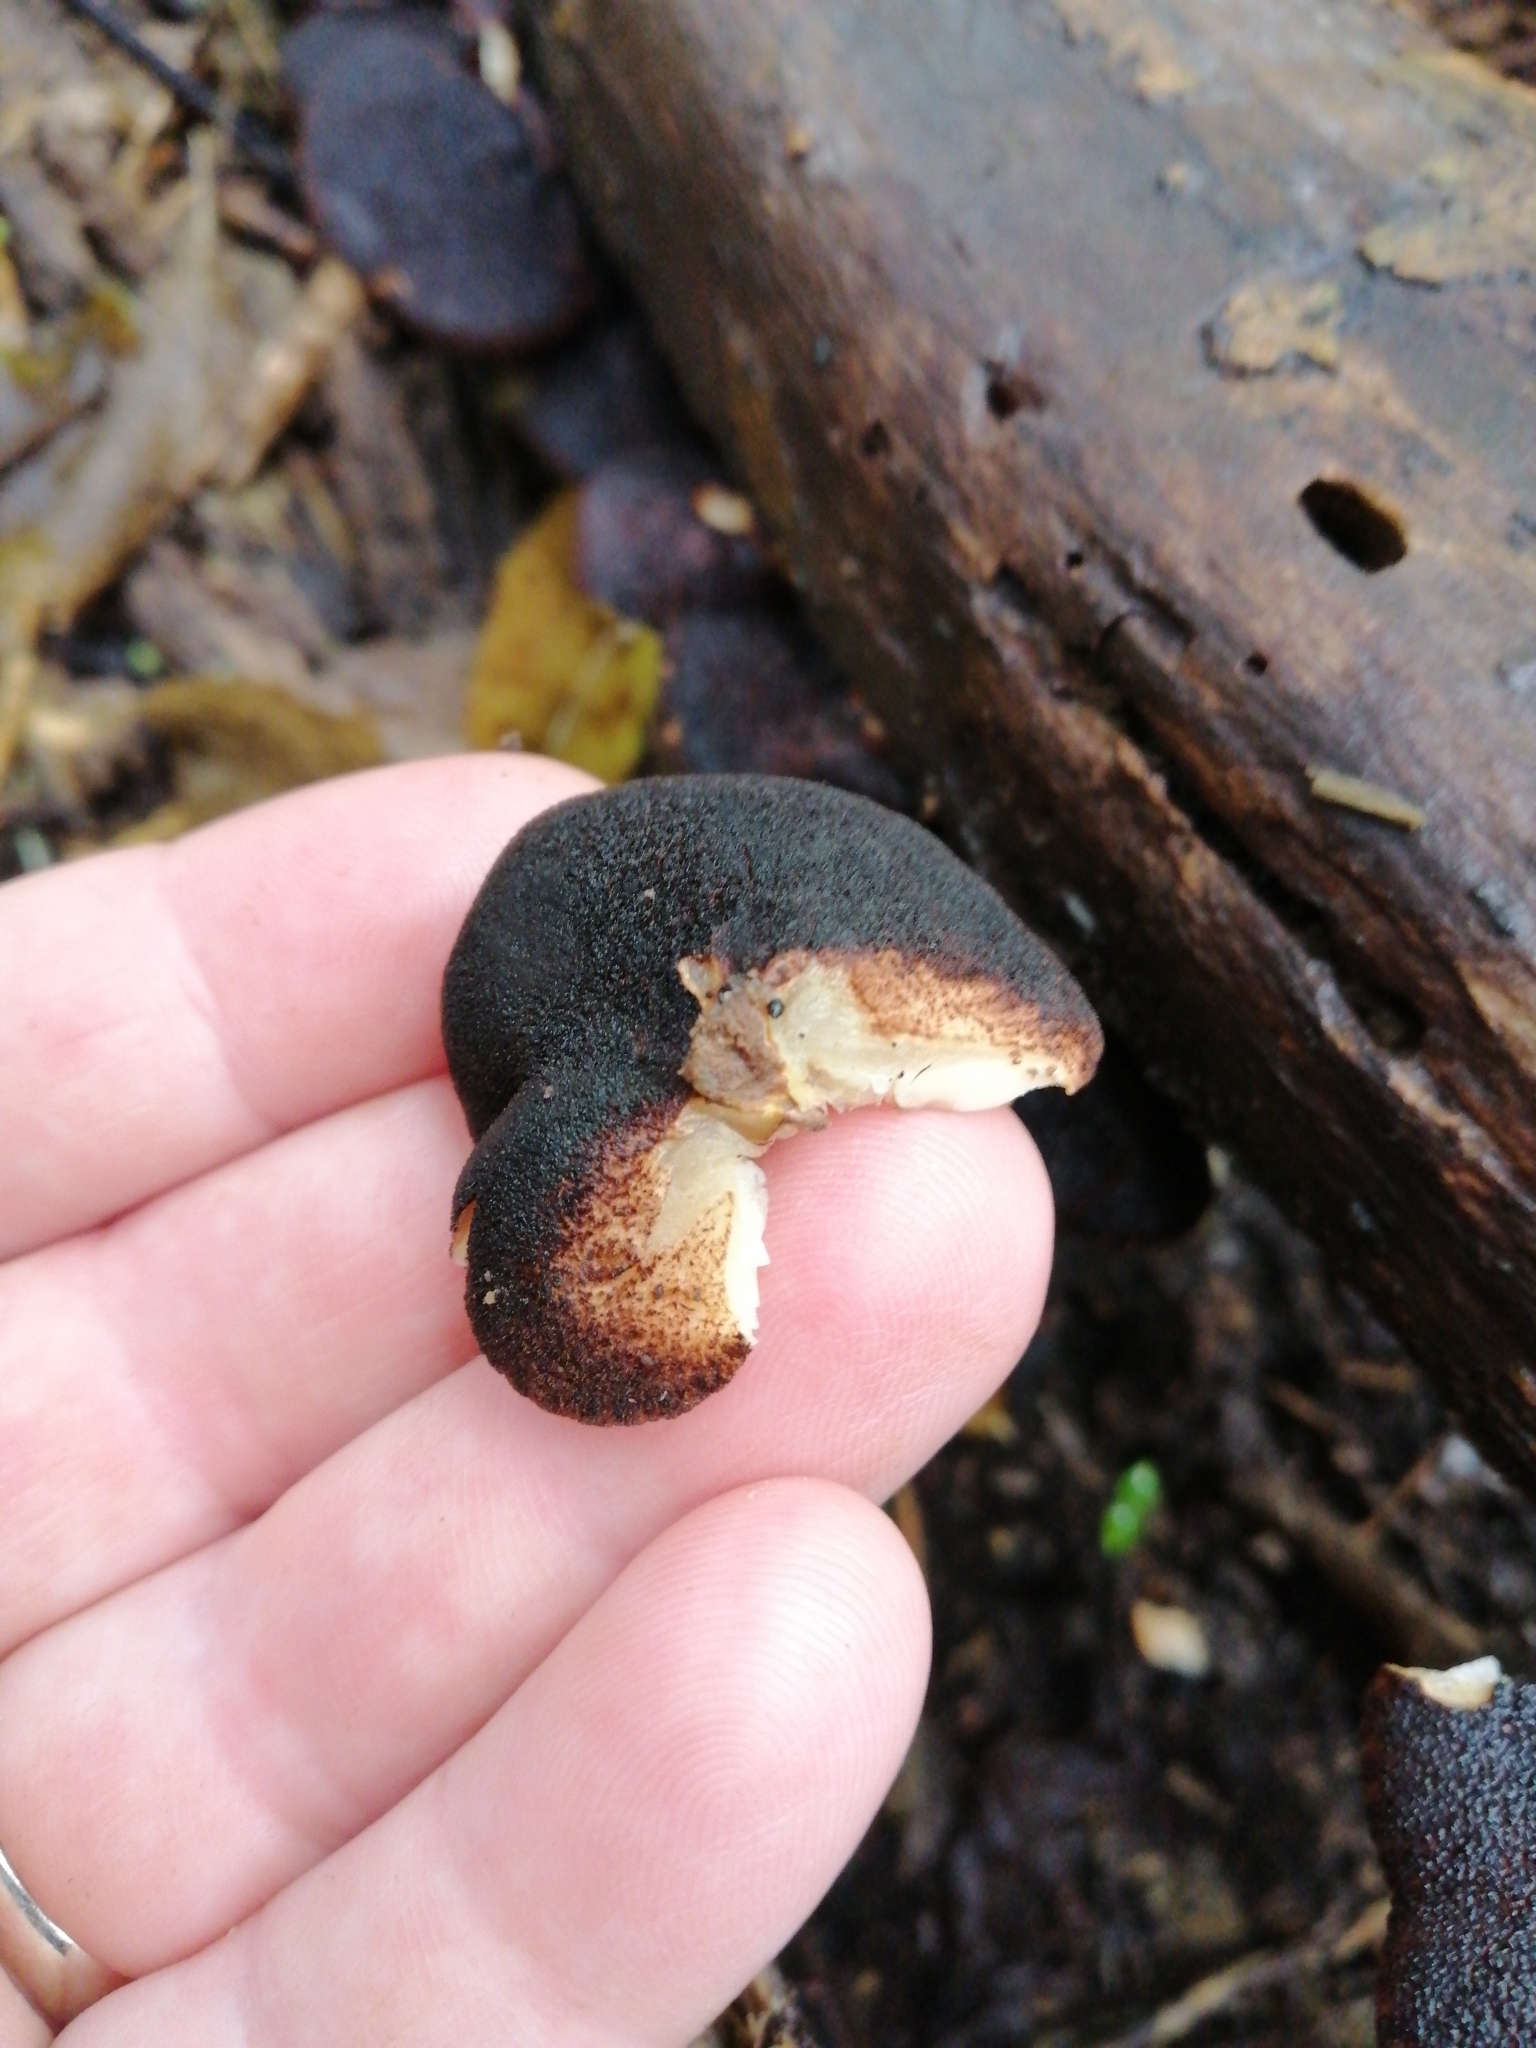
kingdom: Fungi
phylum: Basidiomycota
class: Agaricomycetes
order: Agaricales
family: Crepidotaceae
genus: Crepidotus
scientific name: Crepidotus fuscovelutinus
